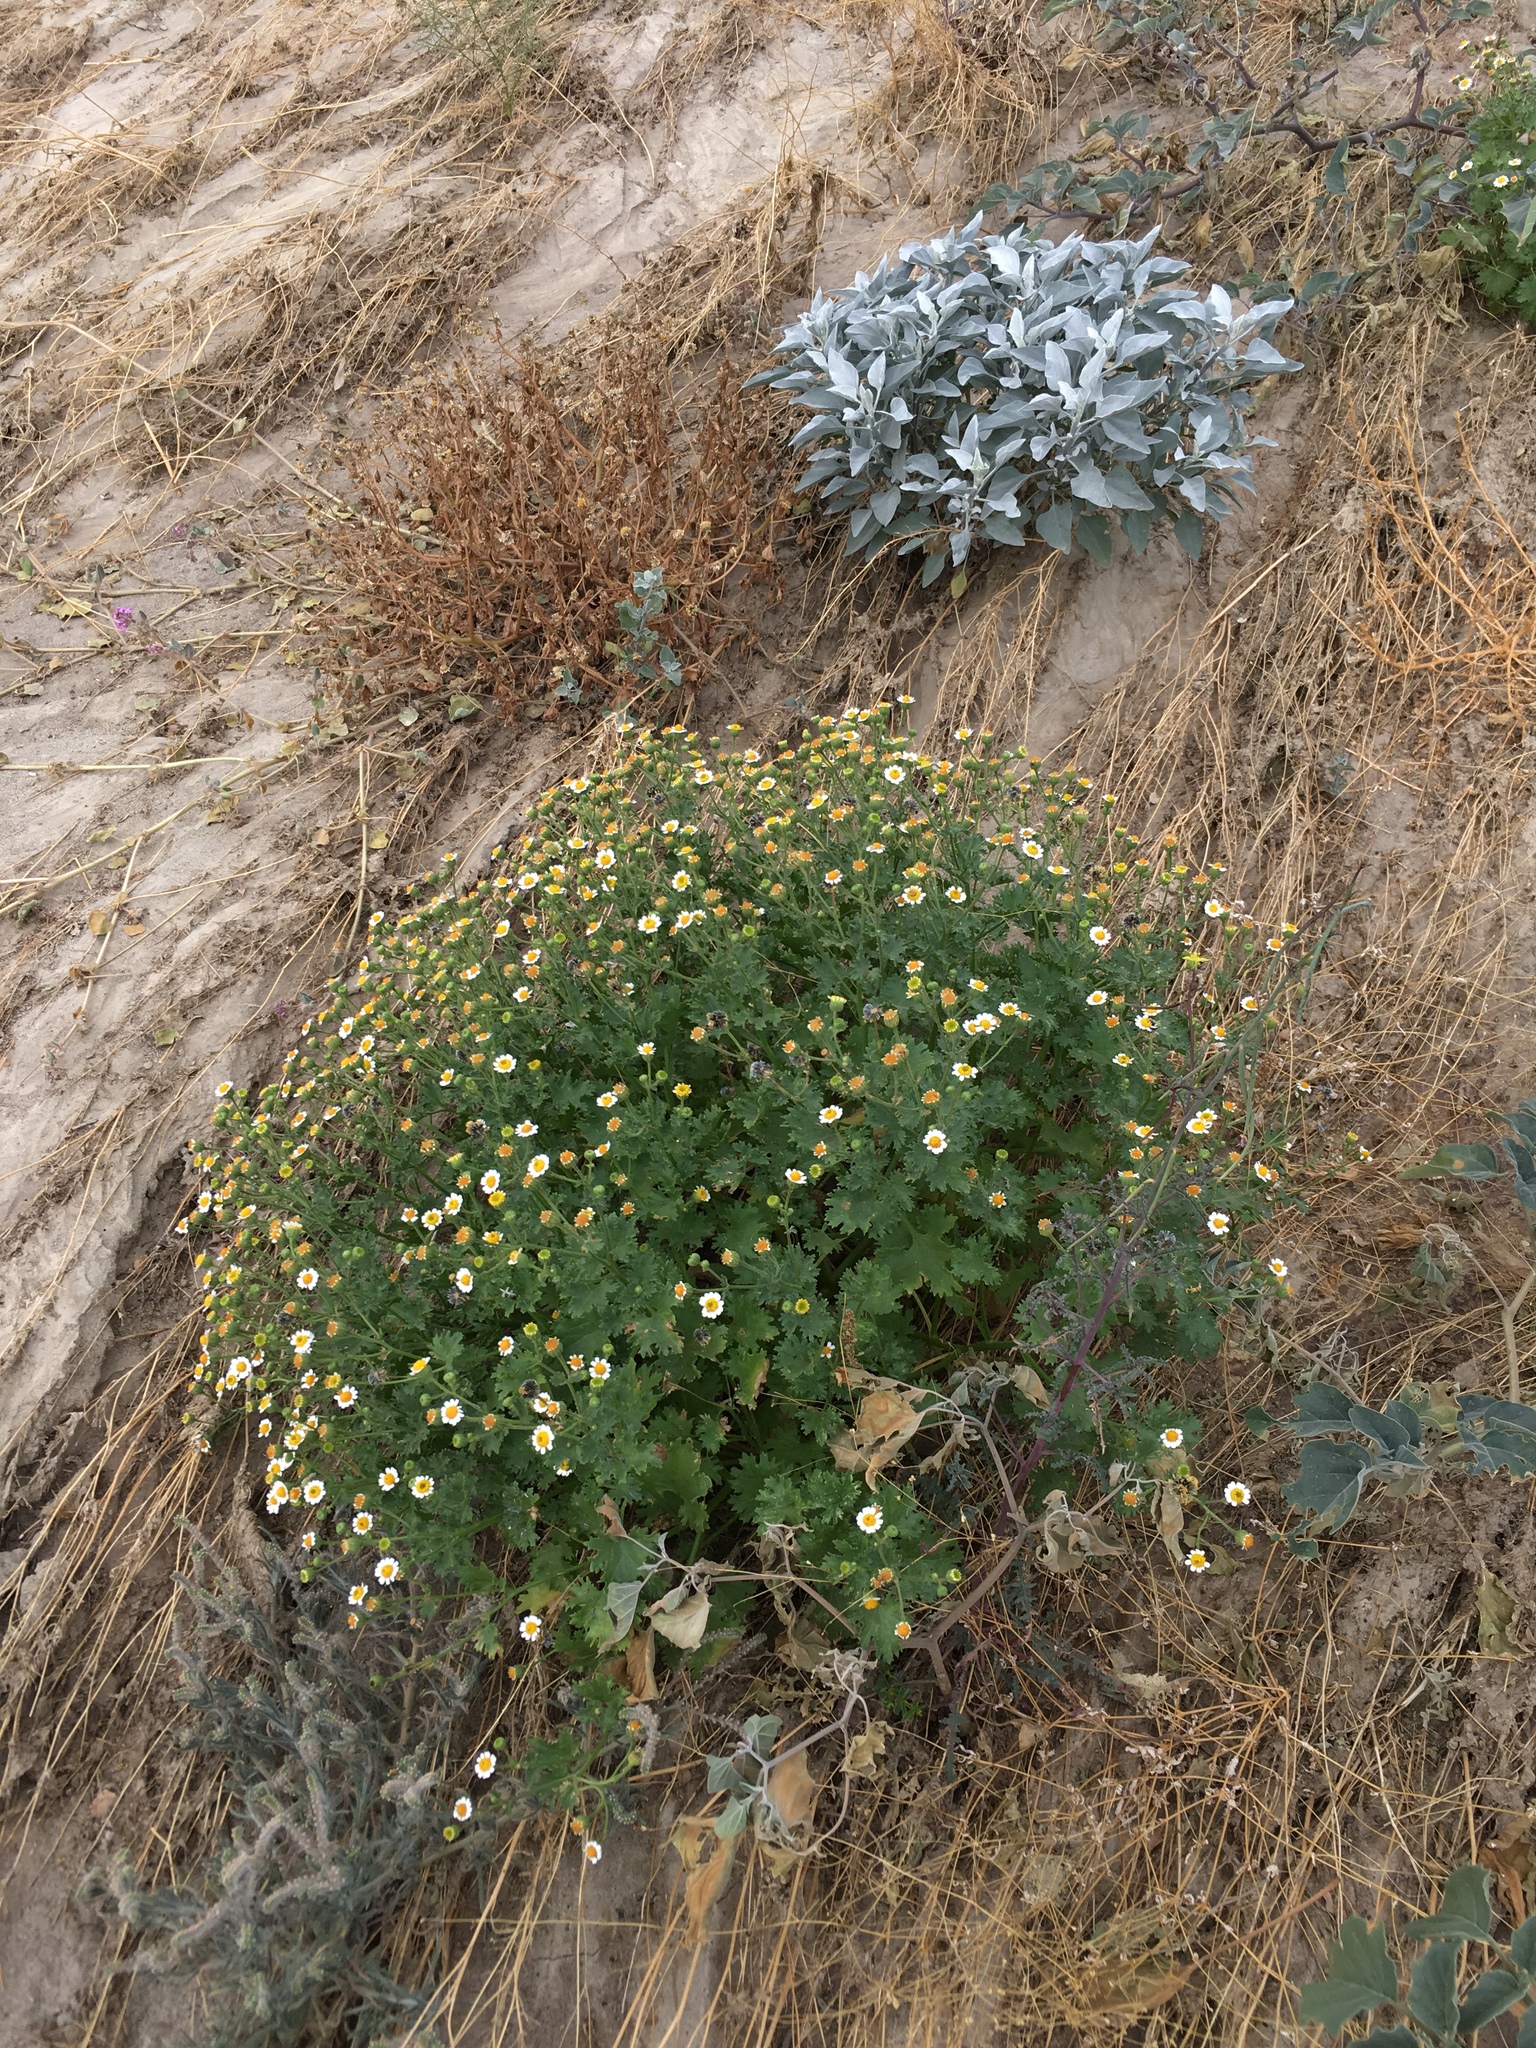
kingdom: Plantae
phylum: Tracheophyta
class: Magnoliopsida
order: Asterales
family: Asteraceae
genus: Laphamia
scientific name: Laphamia emoryi
